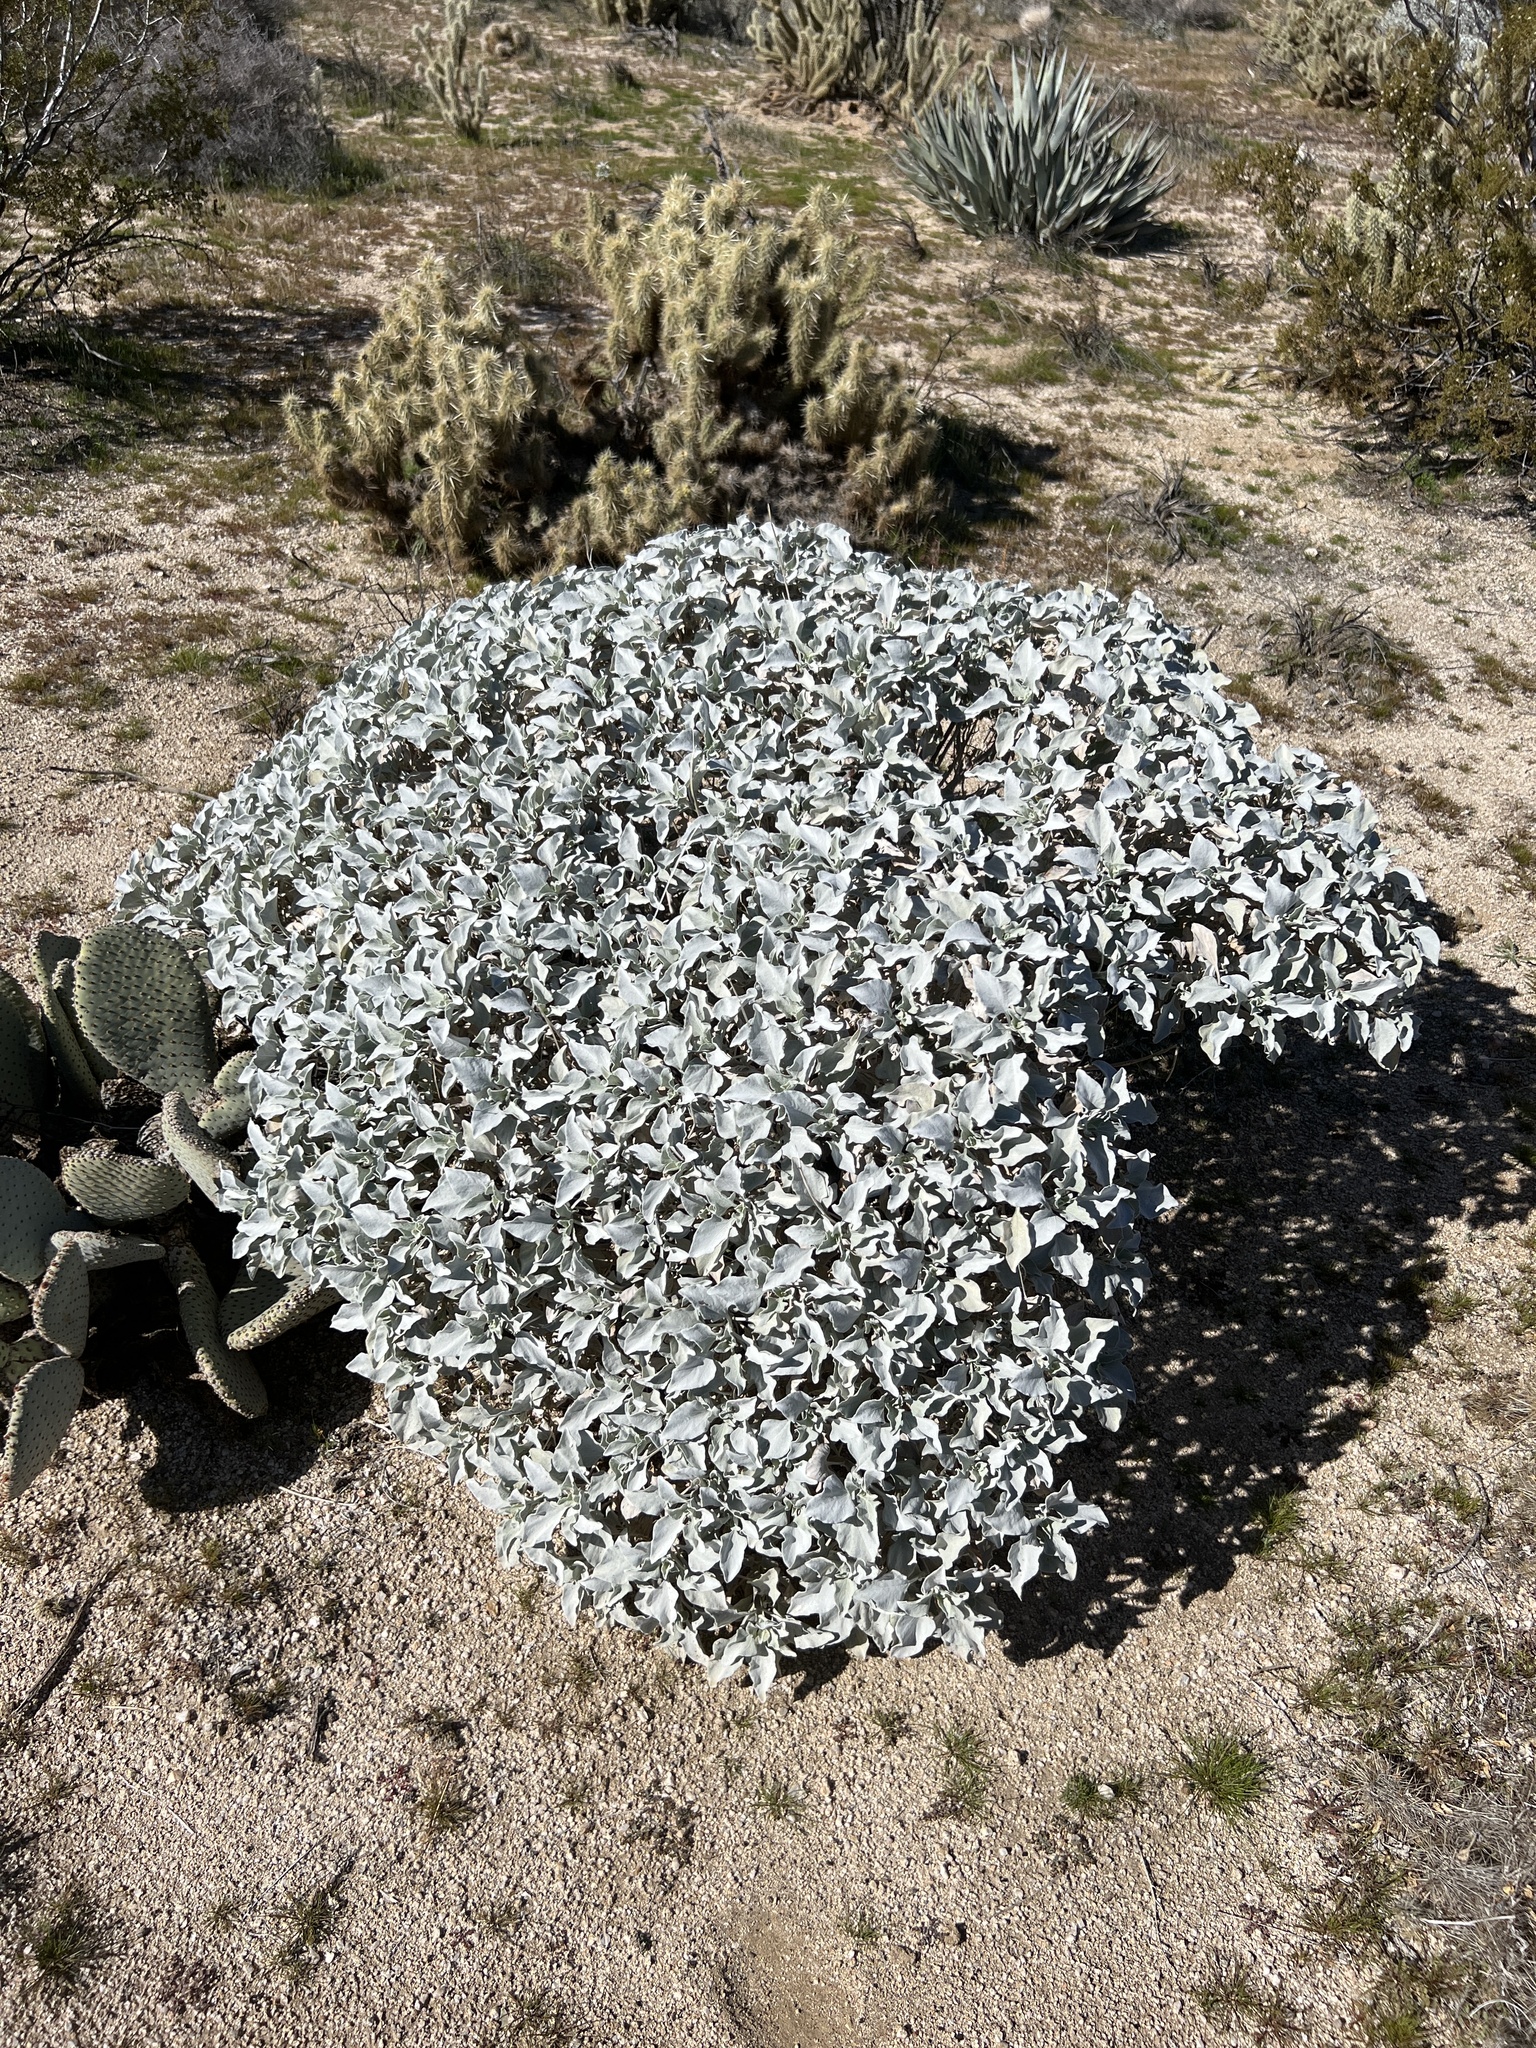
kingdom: Plantae
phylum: Tracheophyta
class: Magnoliopsida
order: Asterales
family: Asteraceae
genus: Encelia
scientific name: Encelia farinosa
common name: Brittlebush
